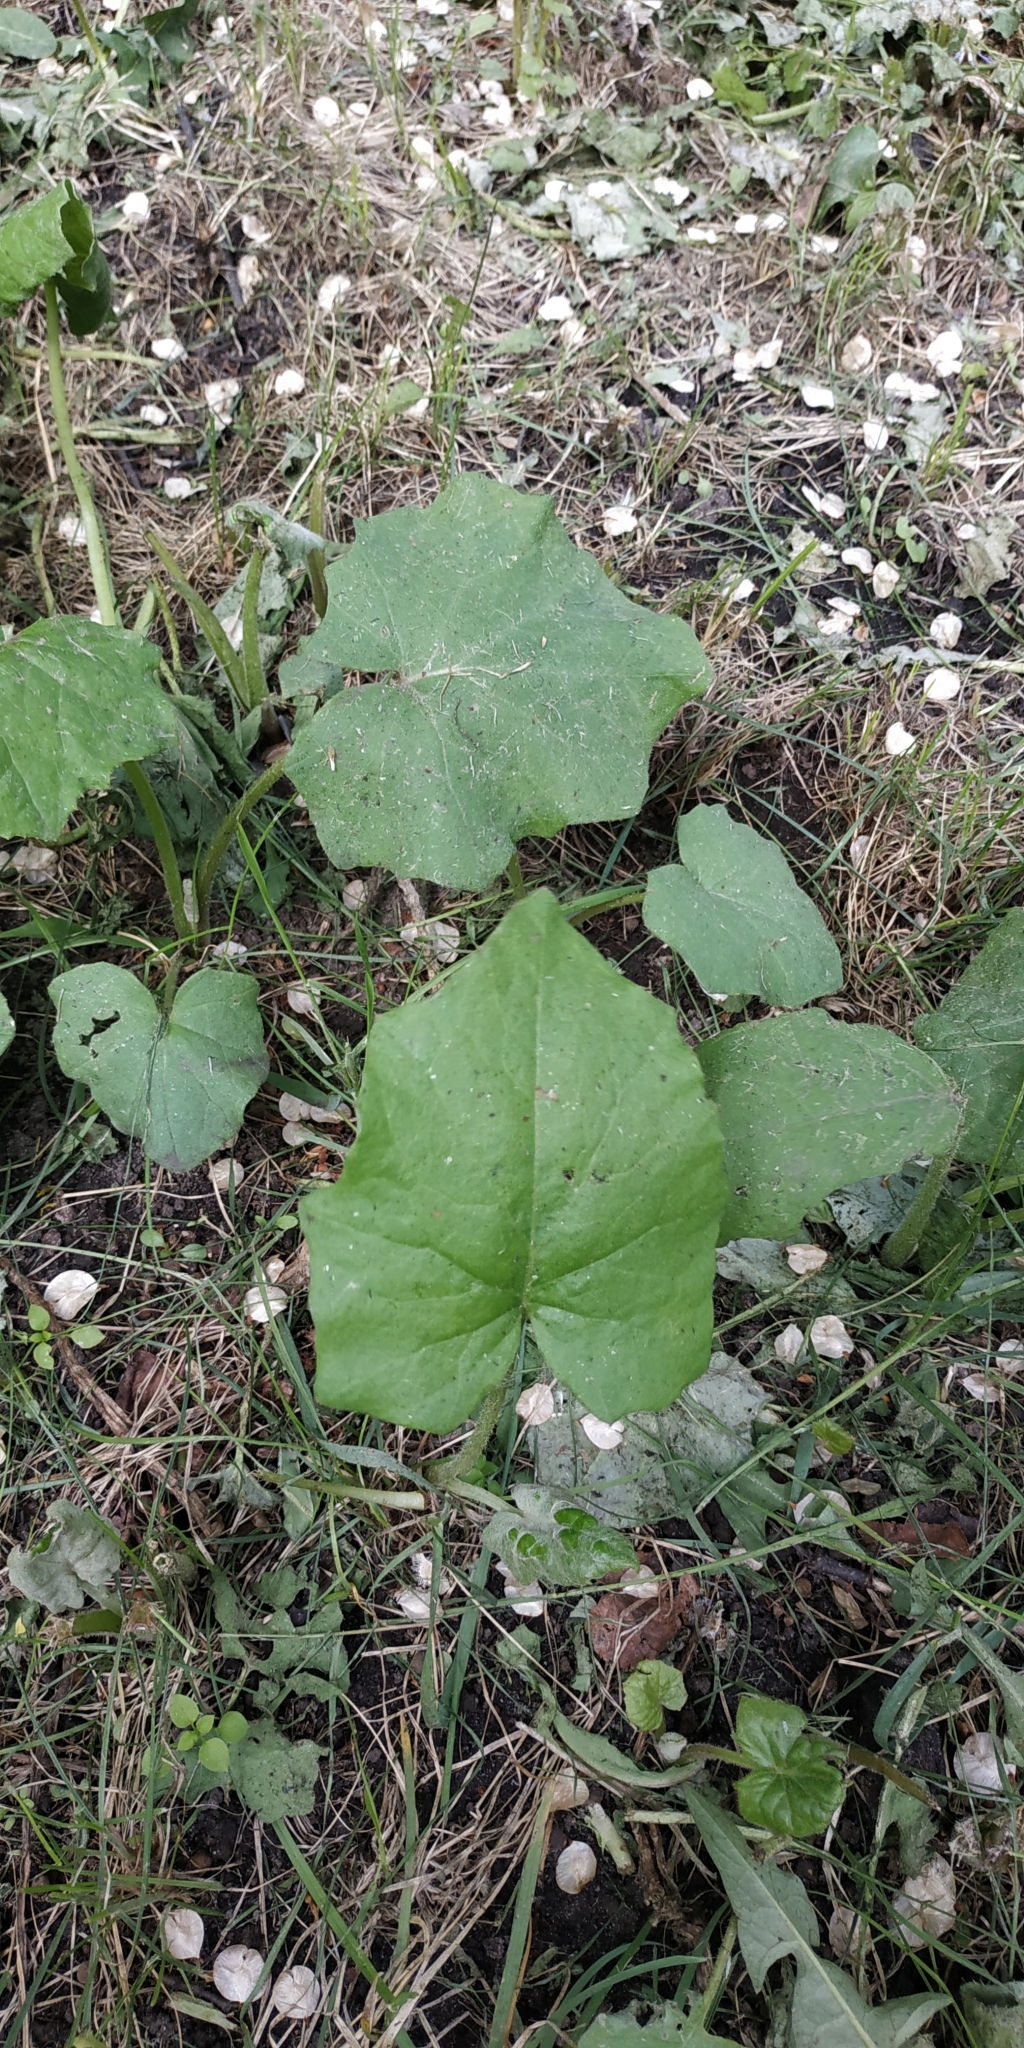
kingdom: Plantae
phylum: Tracheophyta
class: Magnoliopsida
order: Asterales
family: Asteraceae
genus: Tussilago
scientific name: Tussilago farfara
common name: Coltsfoot
